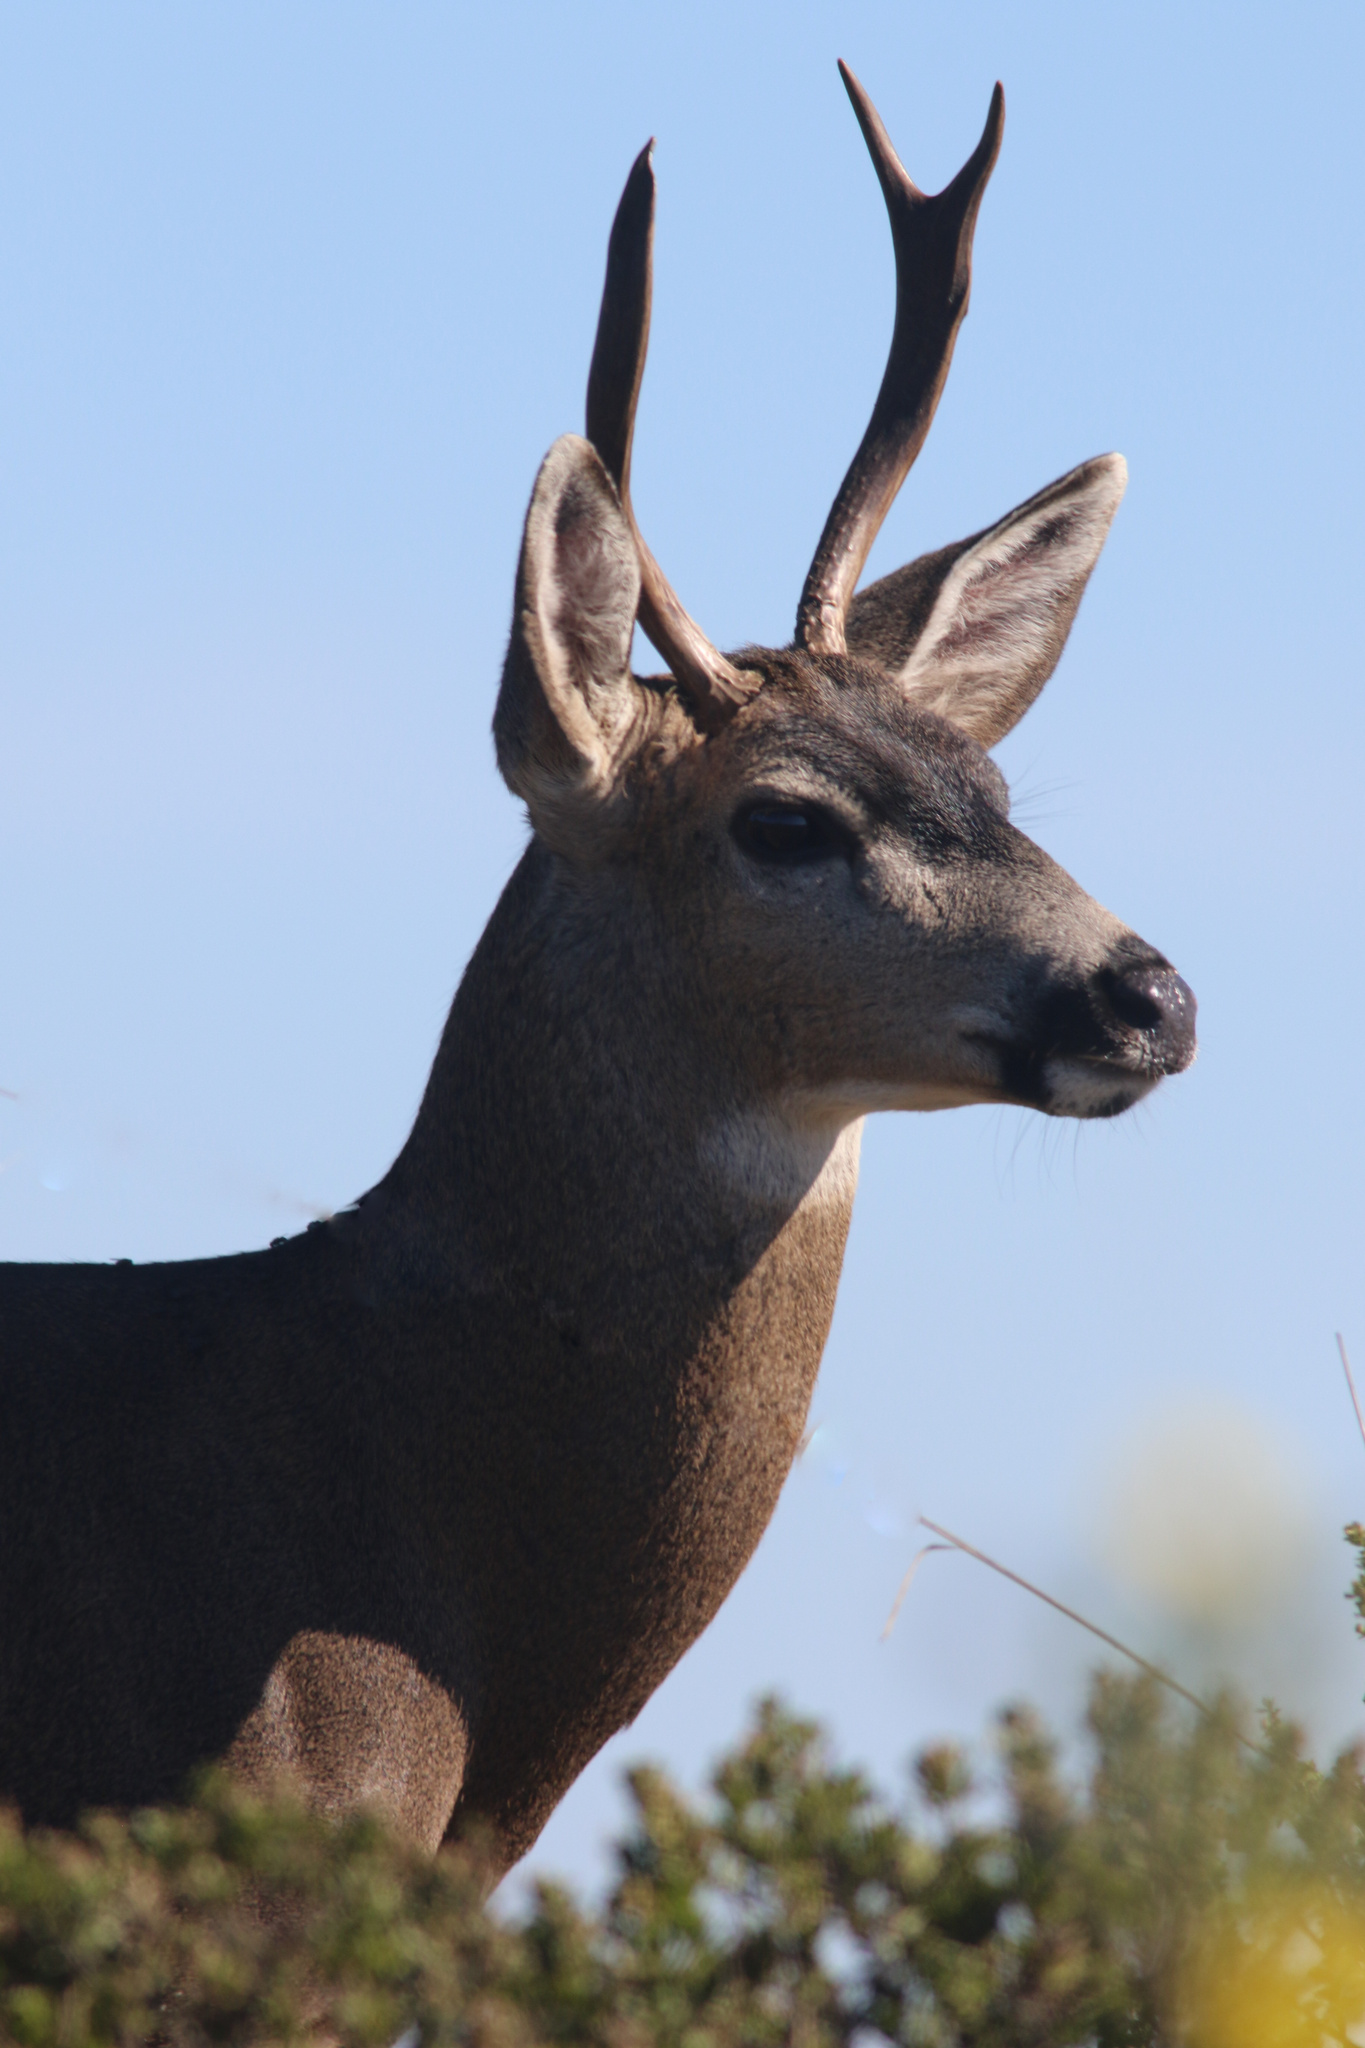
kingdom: Animalia
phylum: Chordata
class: Mammalia
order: Artiodactyla
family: Cervidae
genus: Odocoileus
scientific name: Odocoileus hemionus
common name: Mule deer
